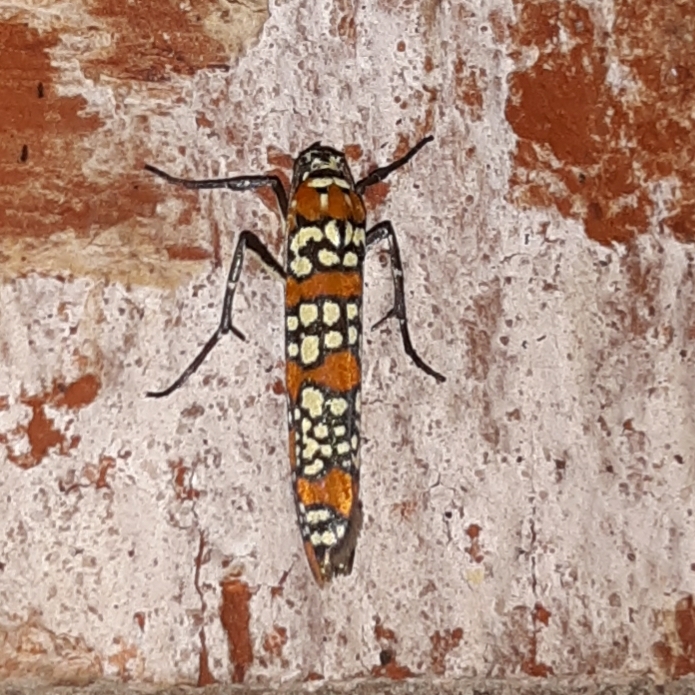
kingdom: Animalia
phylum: Arthropoda
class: Insecta
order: Lepidoptera
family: Attevidae
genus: Atteva
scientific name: Atteva punctella
